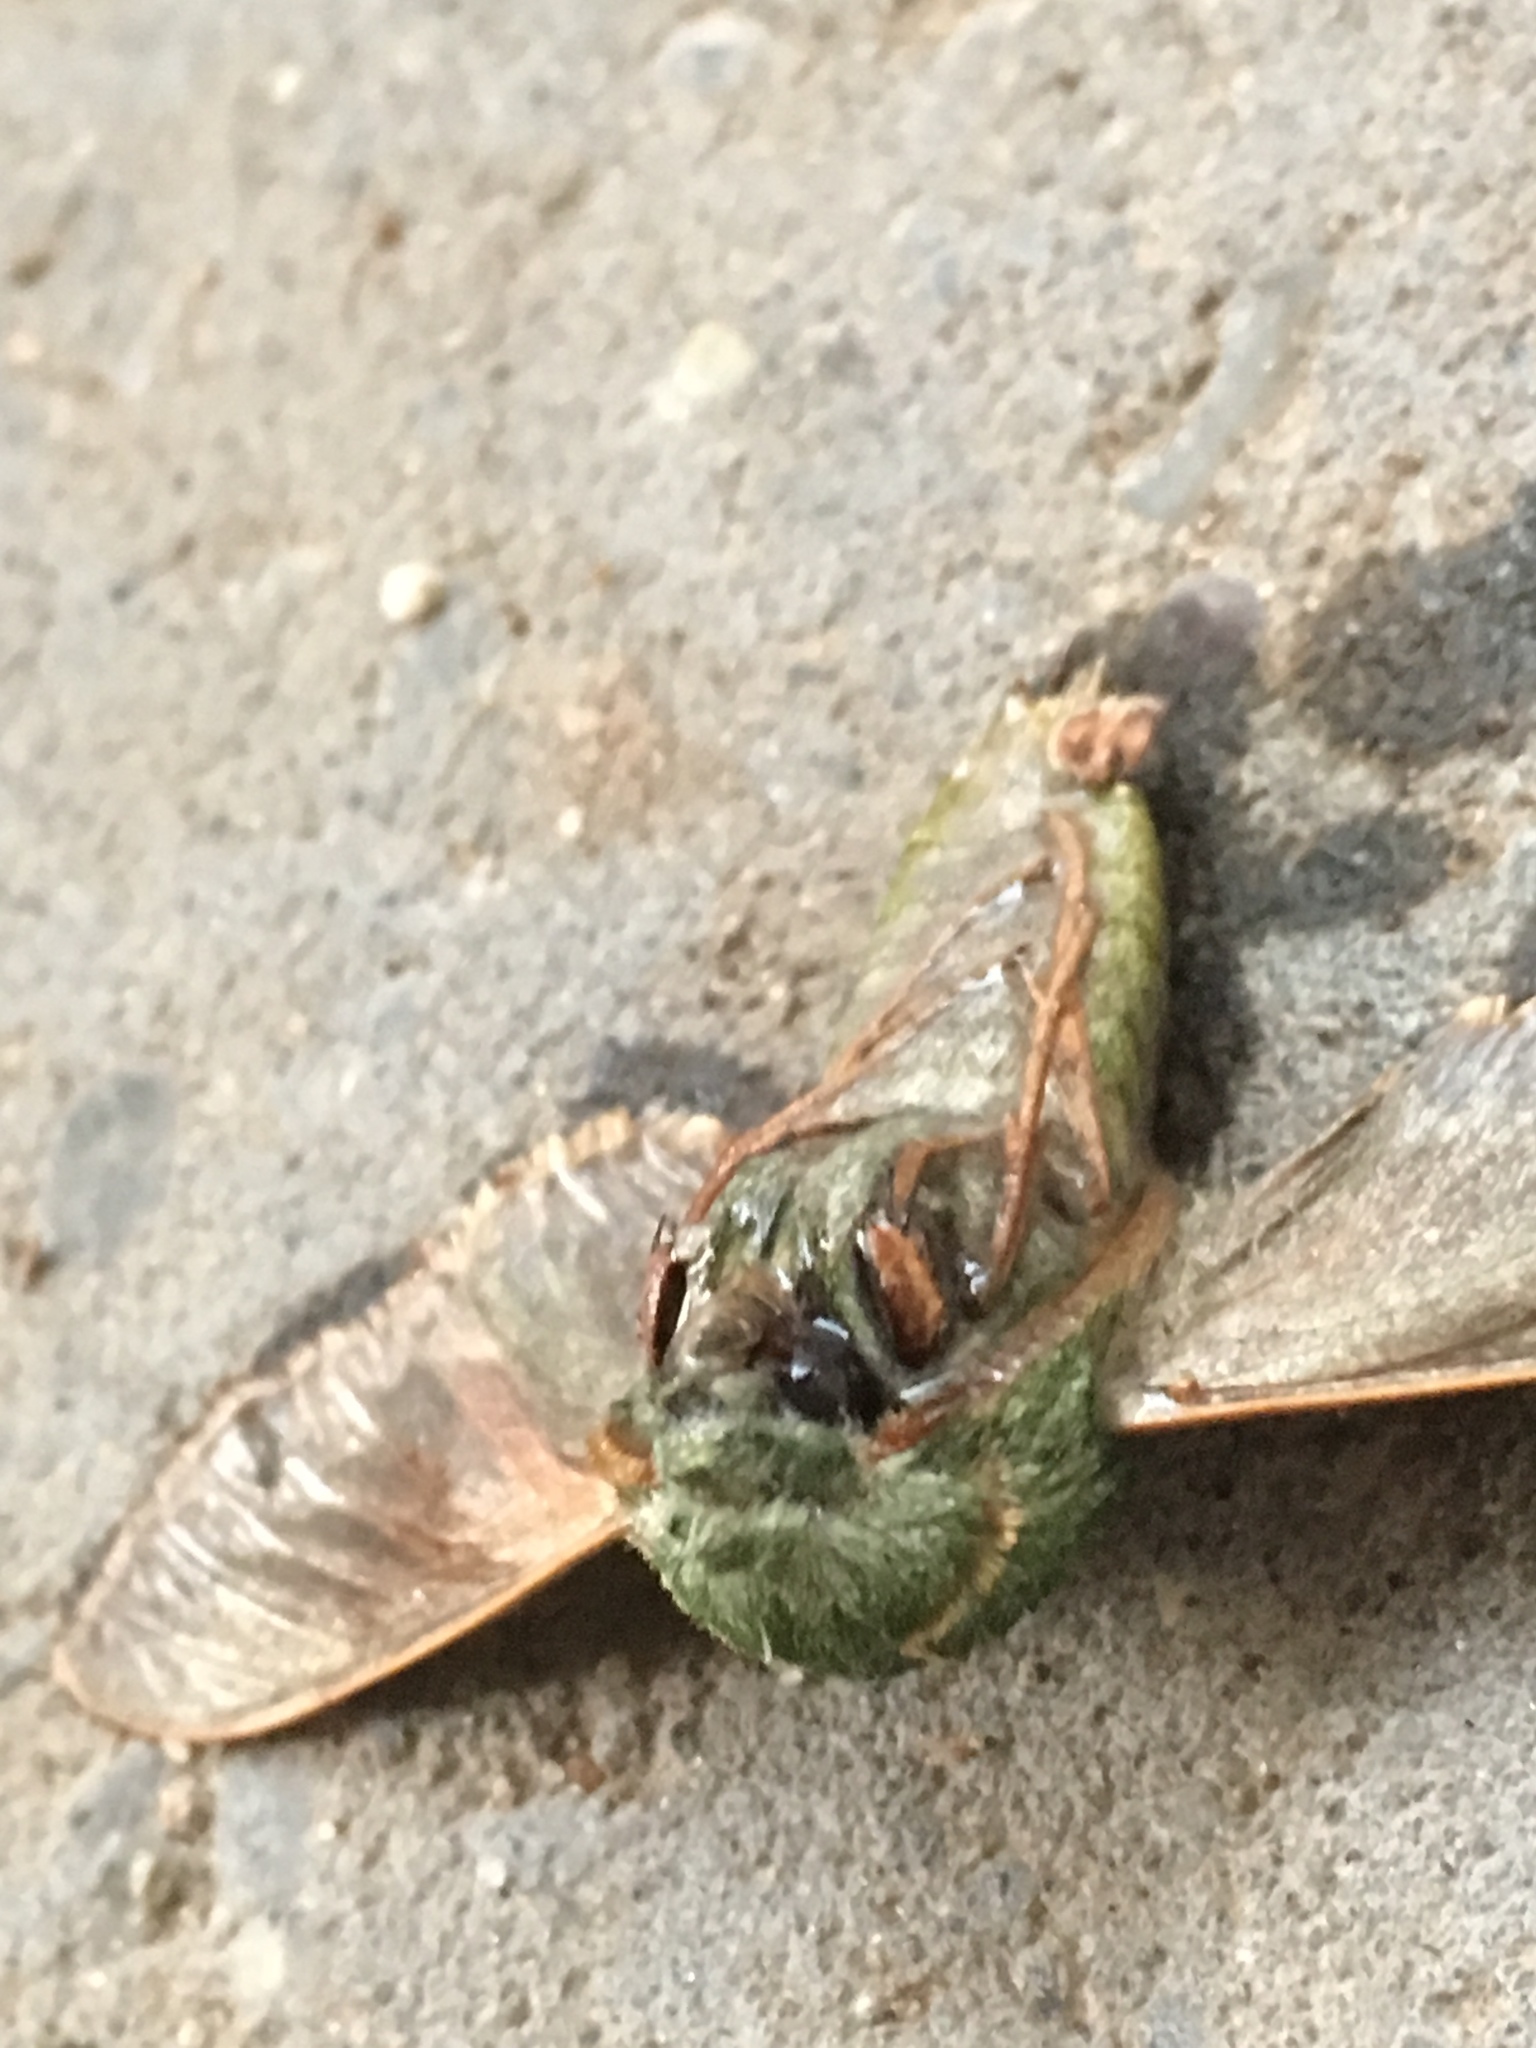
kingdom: Animalia
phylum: Arthropoda
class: Insecta
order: Lepidoptera
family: Sphingidae
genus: Proserpinus
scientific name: Proserpinus lucidus
